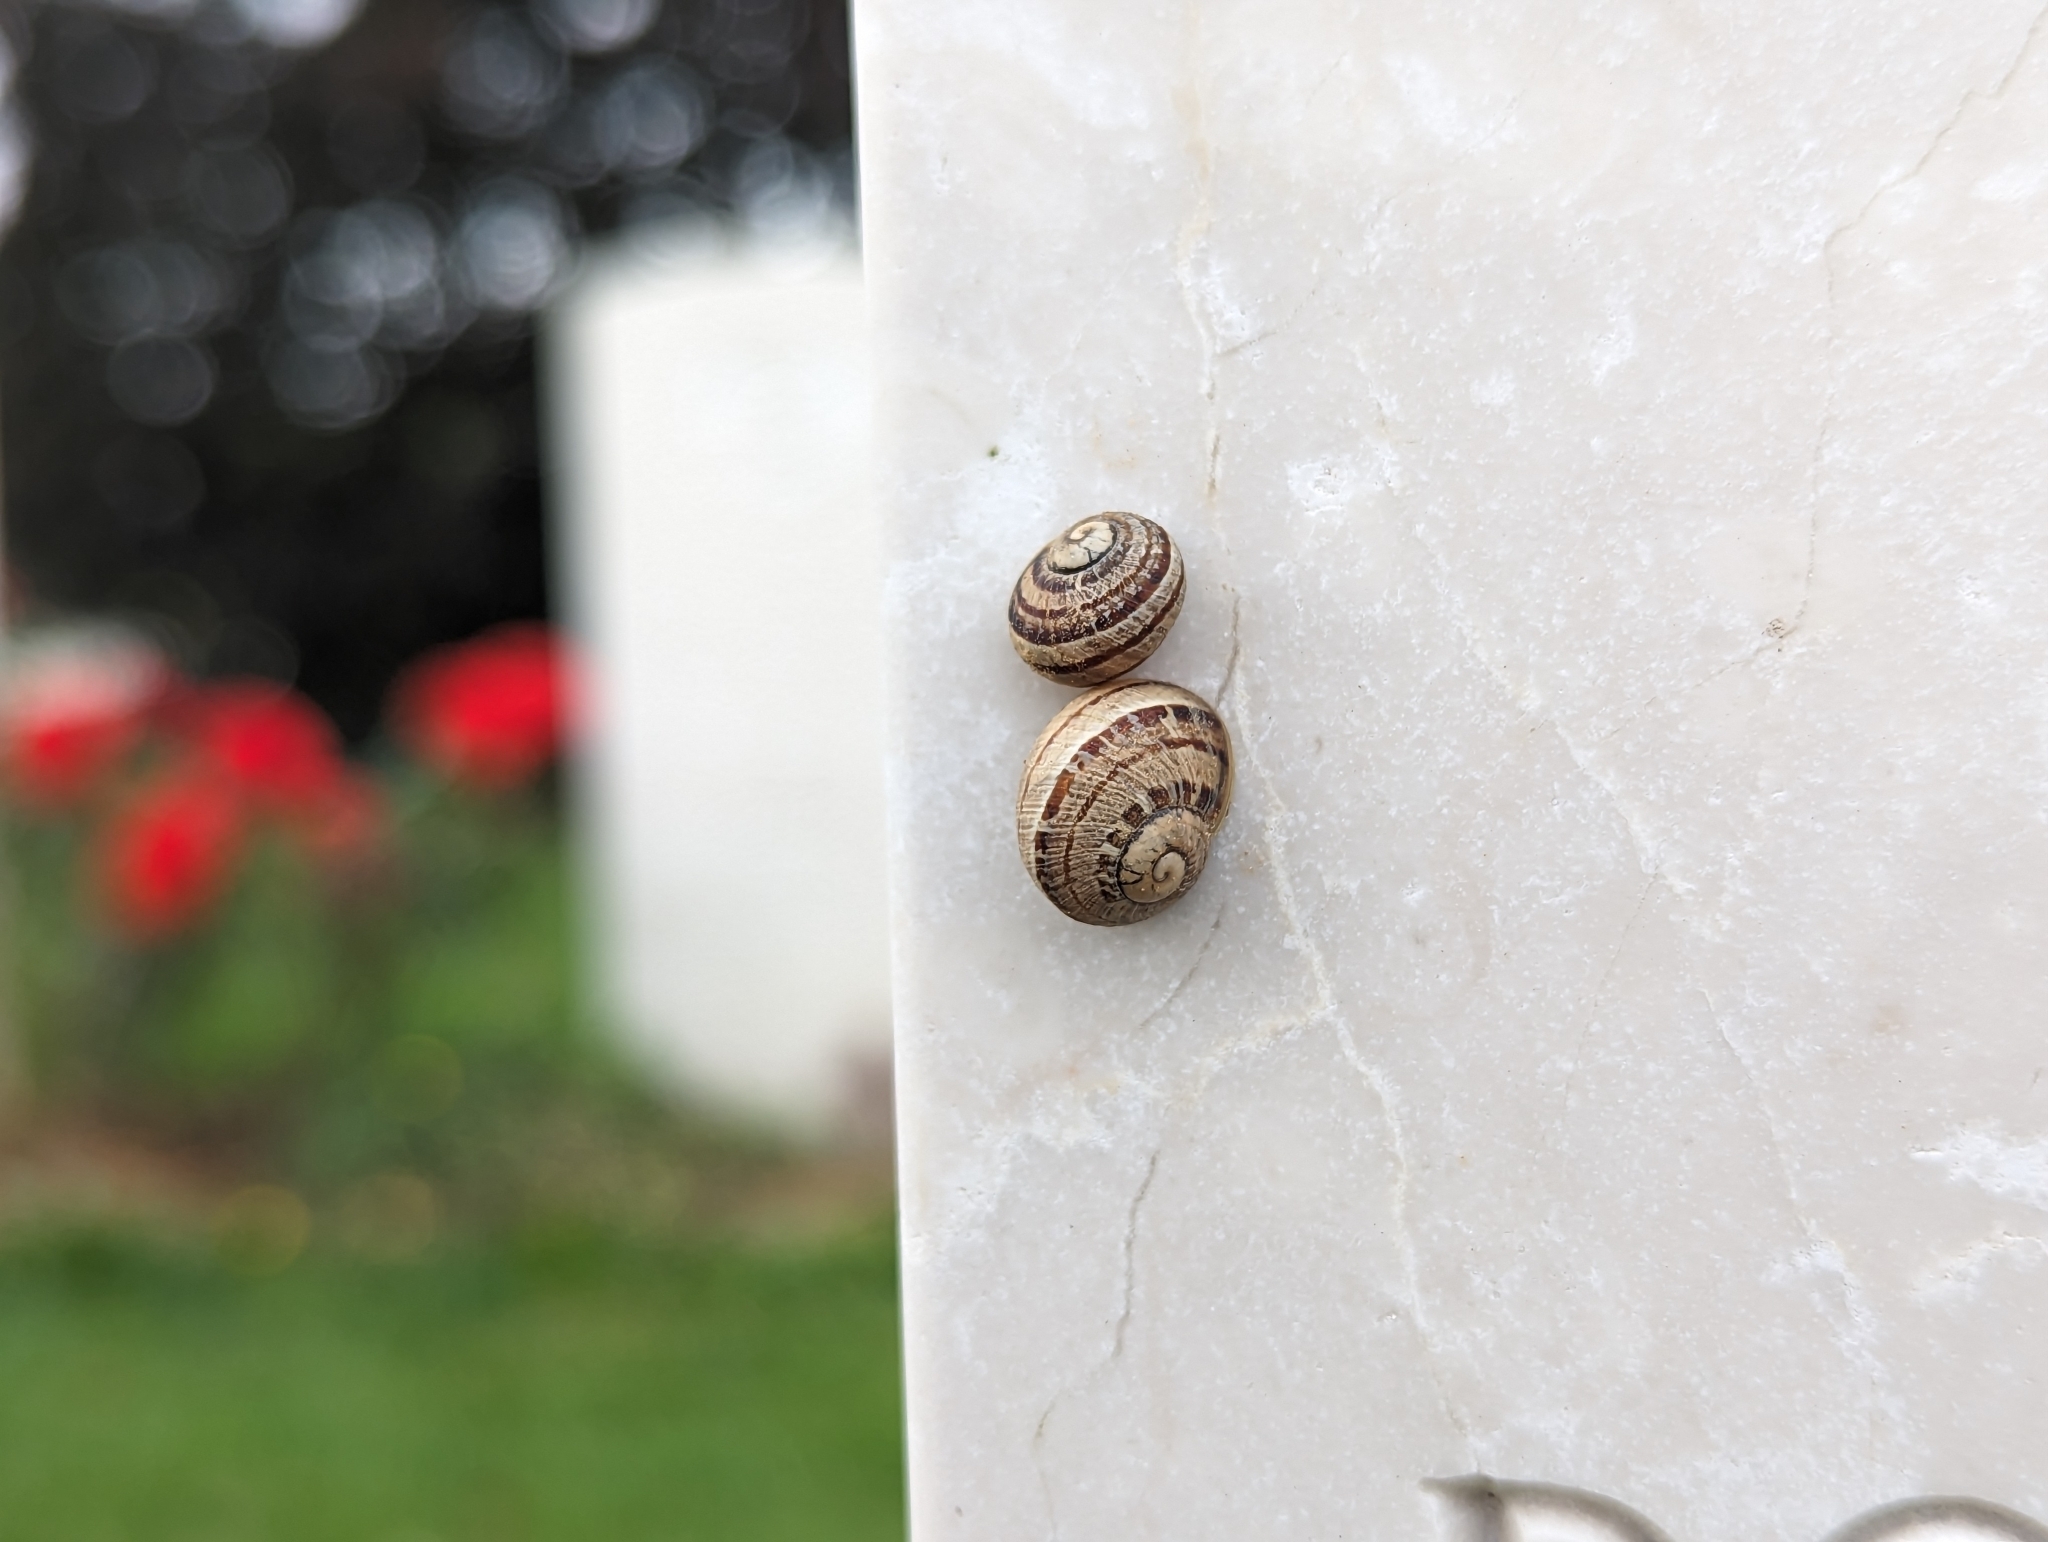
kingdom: Animalia
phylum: Mollusca
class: Gastropoda
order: Stylommatophora
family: Helicidae
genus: Cornu
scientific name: Cornu aspersum
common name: Brown garden snail
